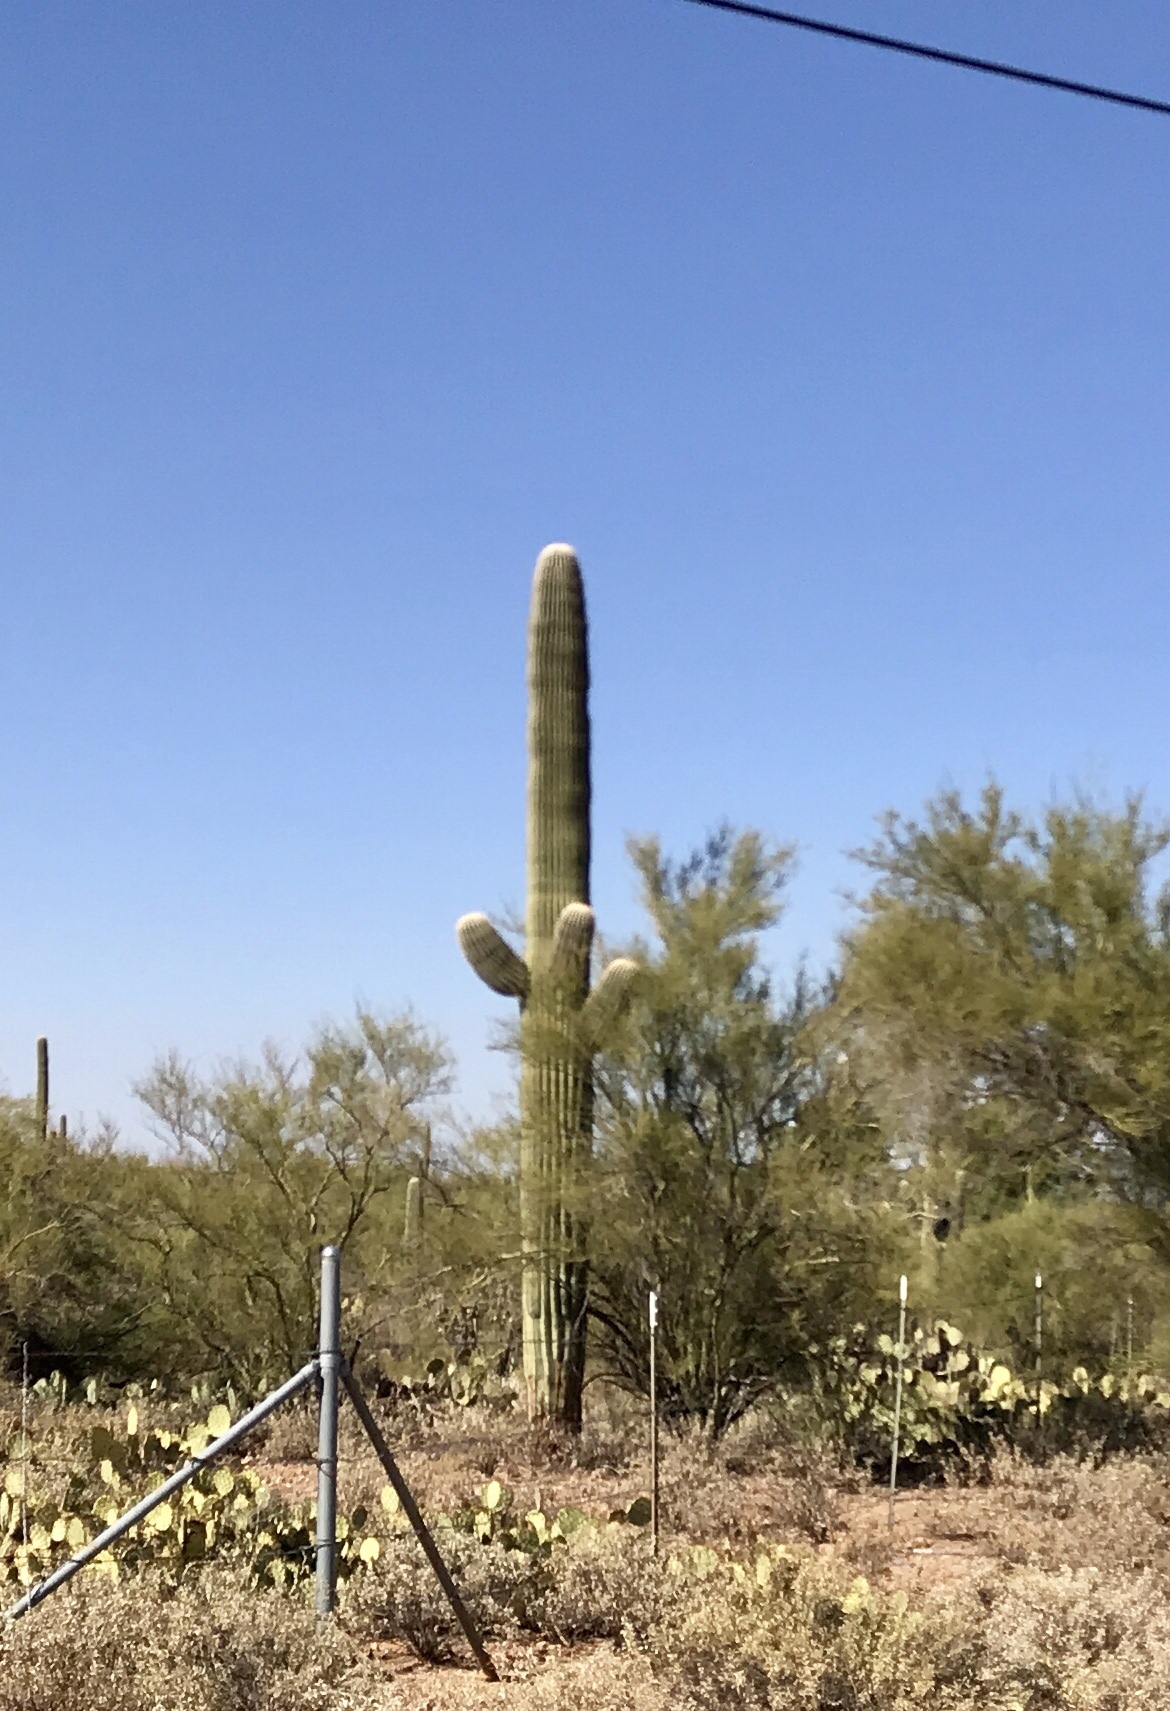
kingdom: Plantae
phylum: Tracheophyta
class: Magnoliopsida
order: Caryophyllales
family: Cactaceae
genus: Carnegiea
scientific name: Carnegiea gigantea
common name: Saguaro
